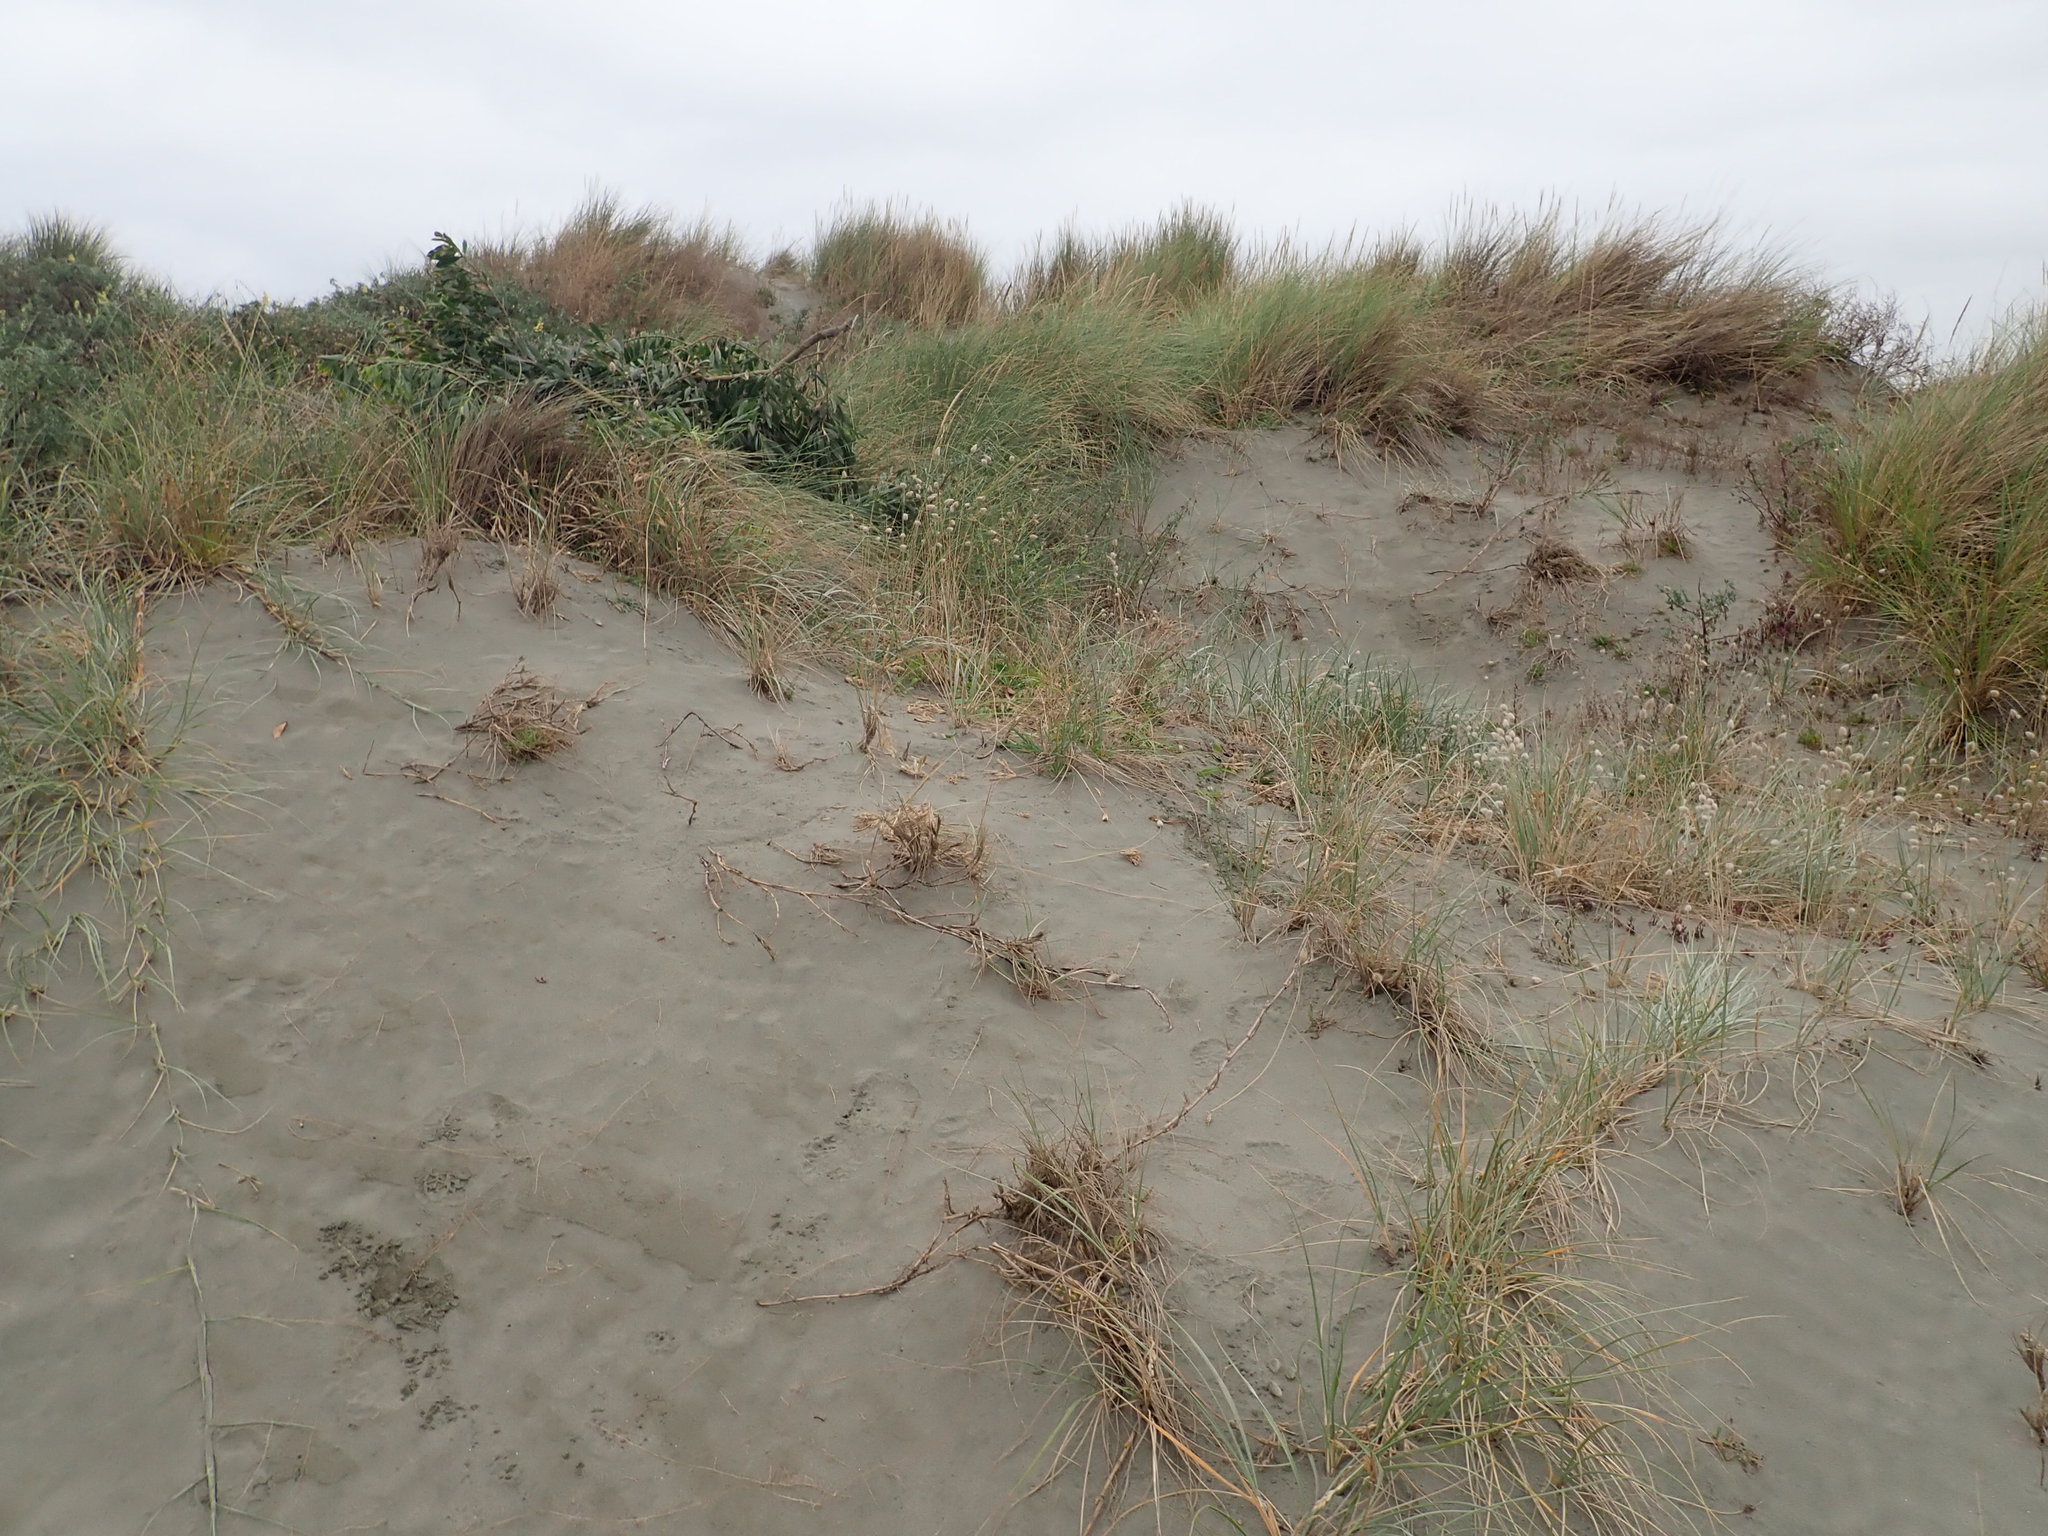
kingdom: Plantae
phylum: Tracheophyta
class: Magnoliopsida
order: Fabales
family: Fabaceae
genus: Acacia
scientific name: Acacia longifolia
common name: Sydney golden wattle
